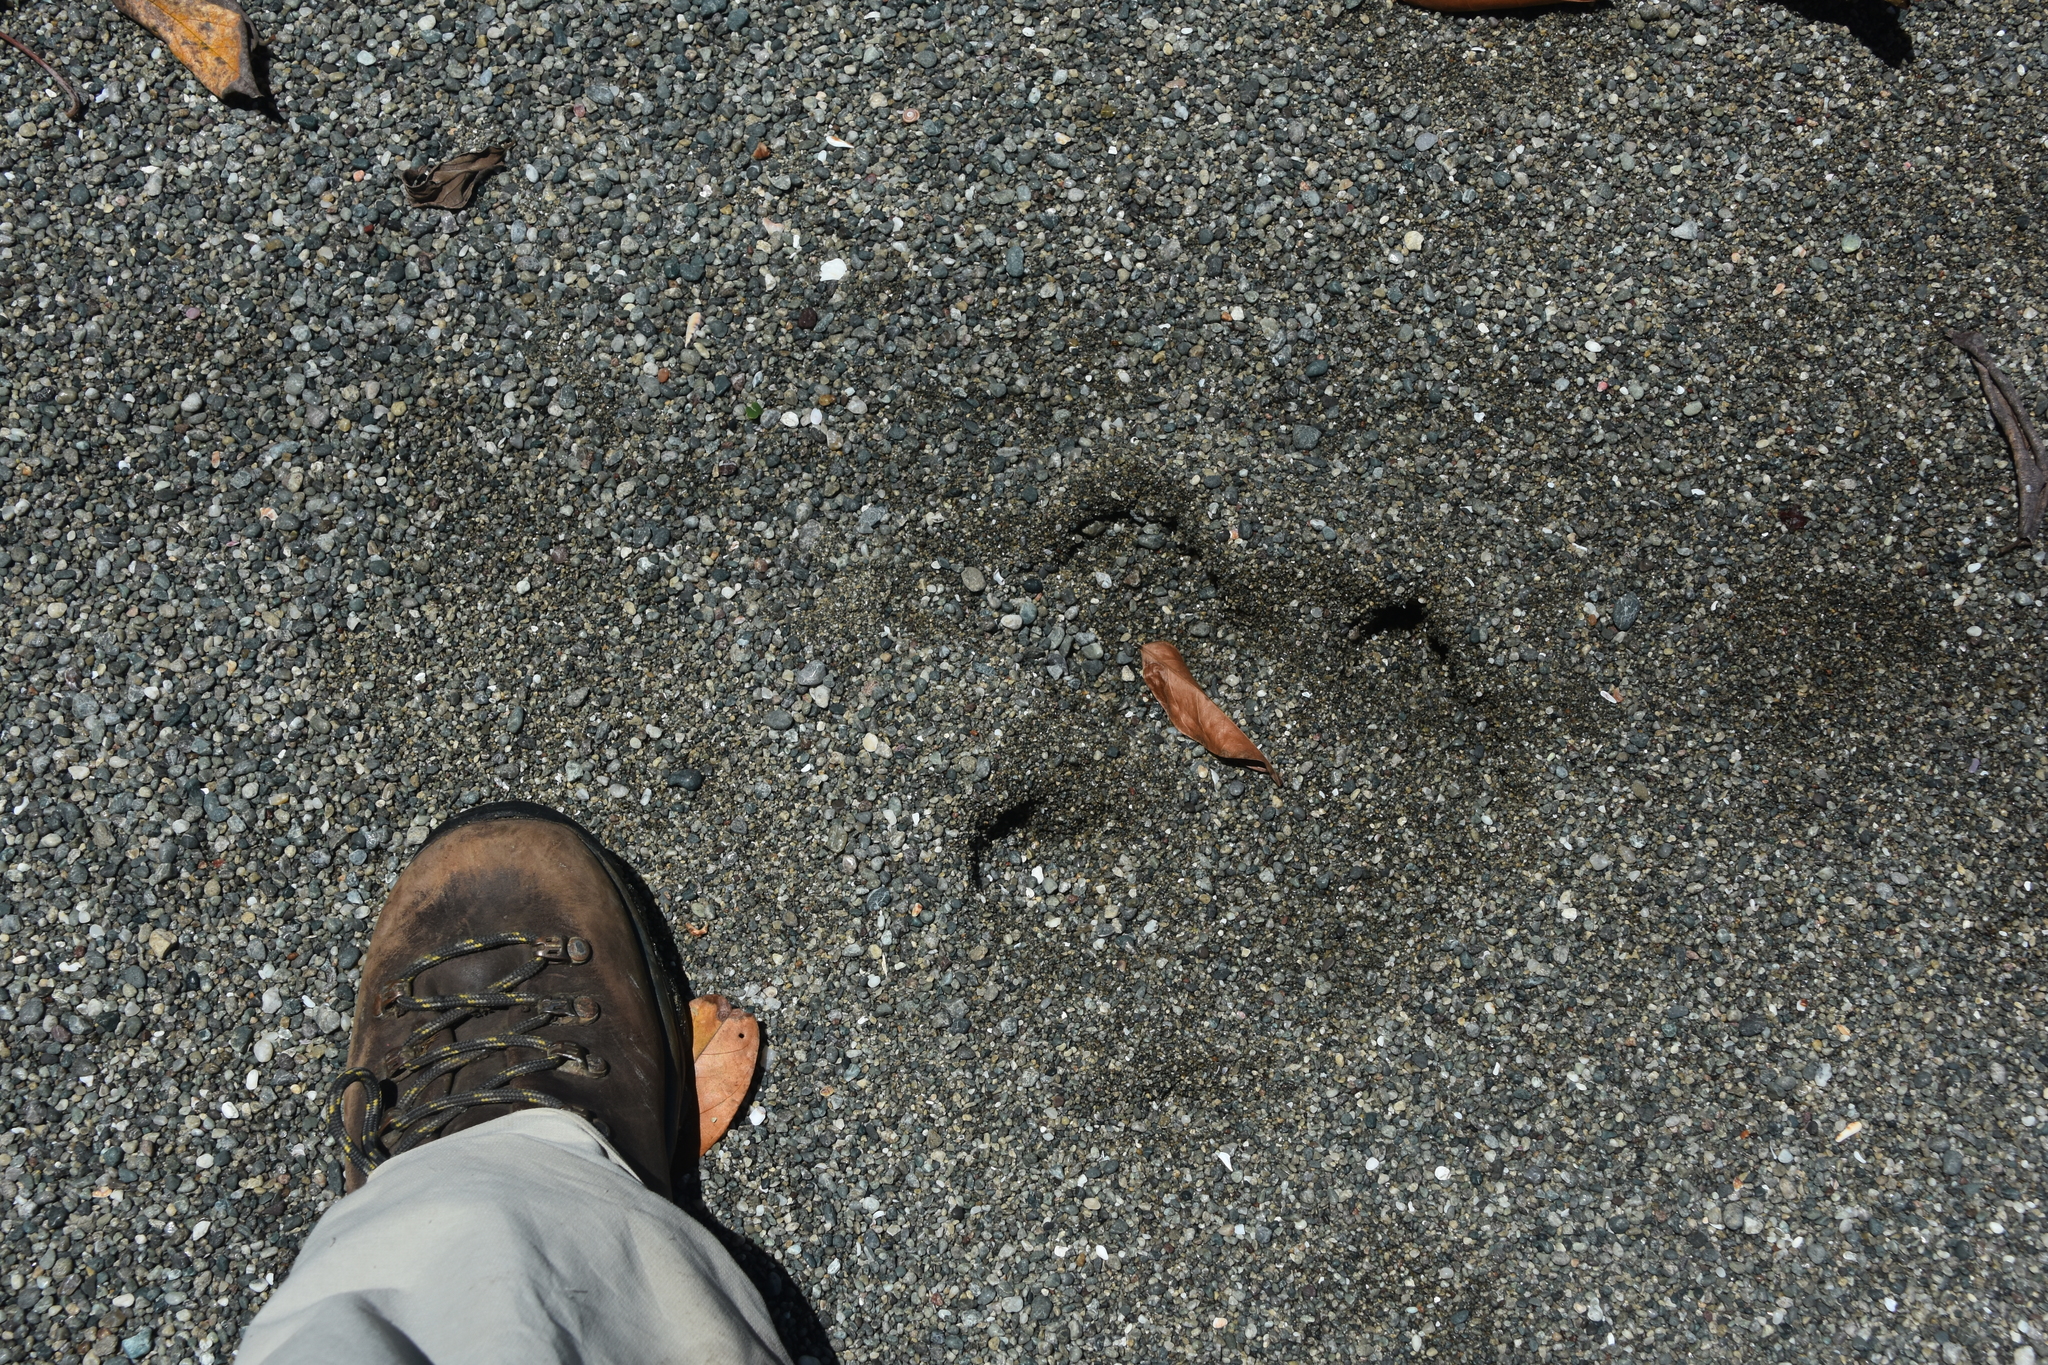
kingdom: Animalia
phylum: Chordata
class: Mammalia
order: Perissodactyla
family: Tapiridae
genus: Tapirella
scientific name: Tapirella bairdii
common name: Baird's tapir
